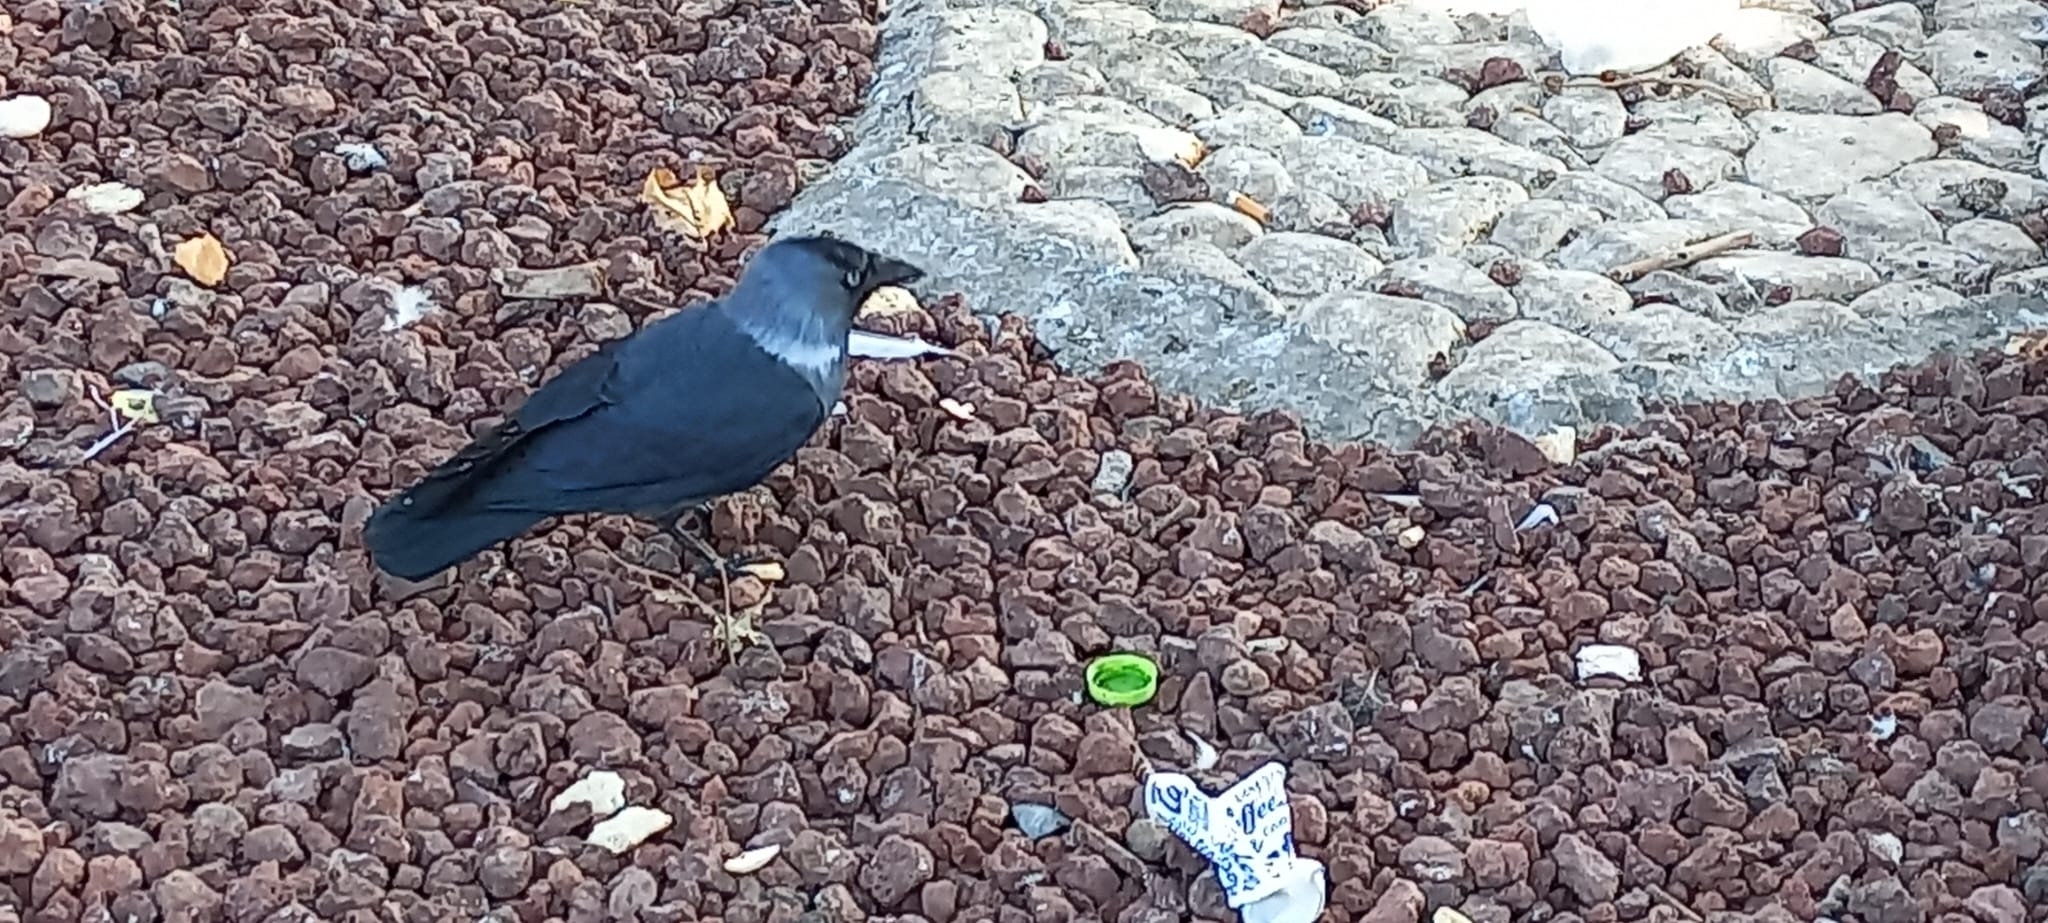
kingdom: Animalia
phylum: Chordata
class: Aves
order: Passeriformes
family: Corvidae
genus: Coloeus
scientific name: Coloeus monedula
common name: Western jackdaw
